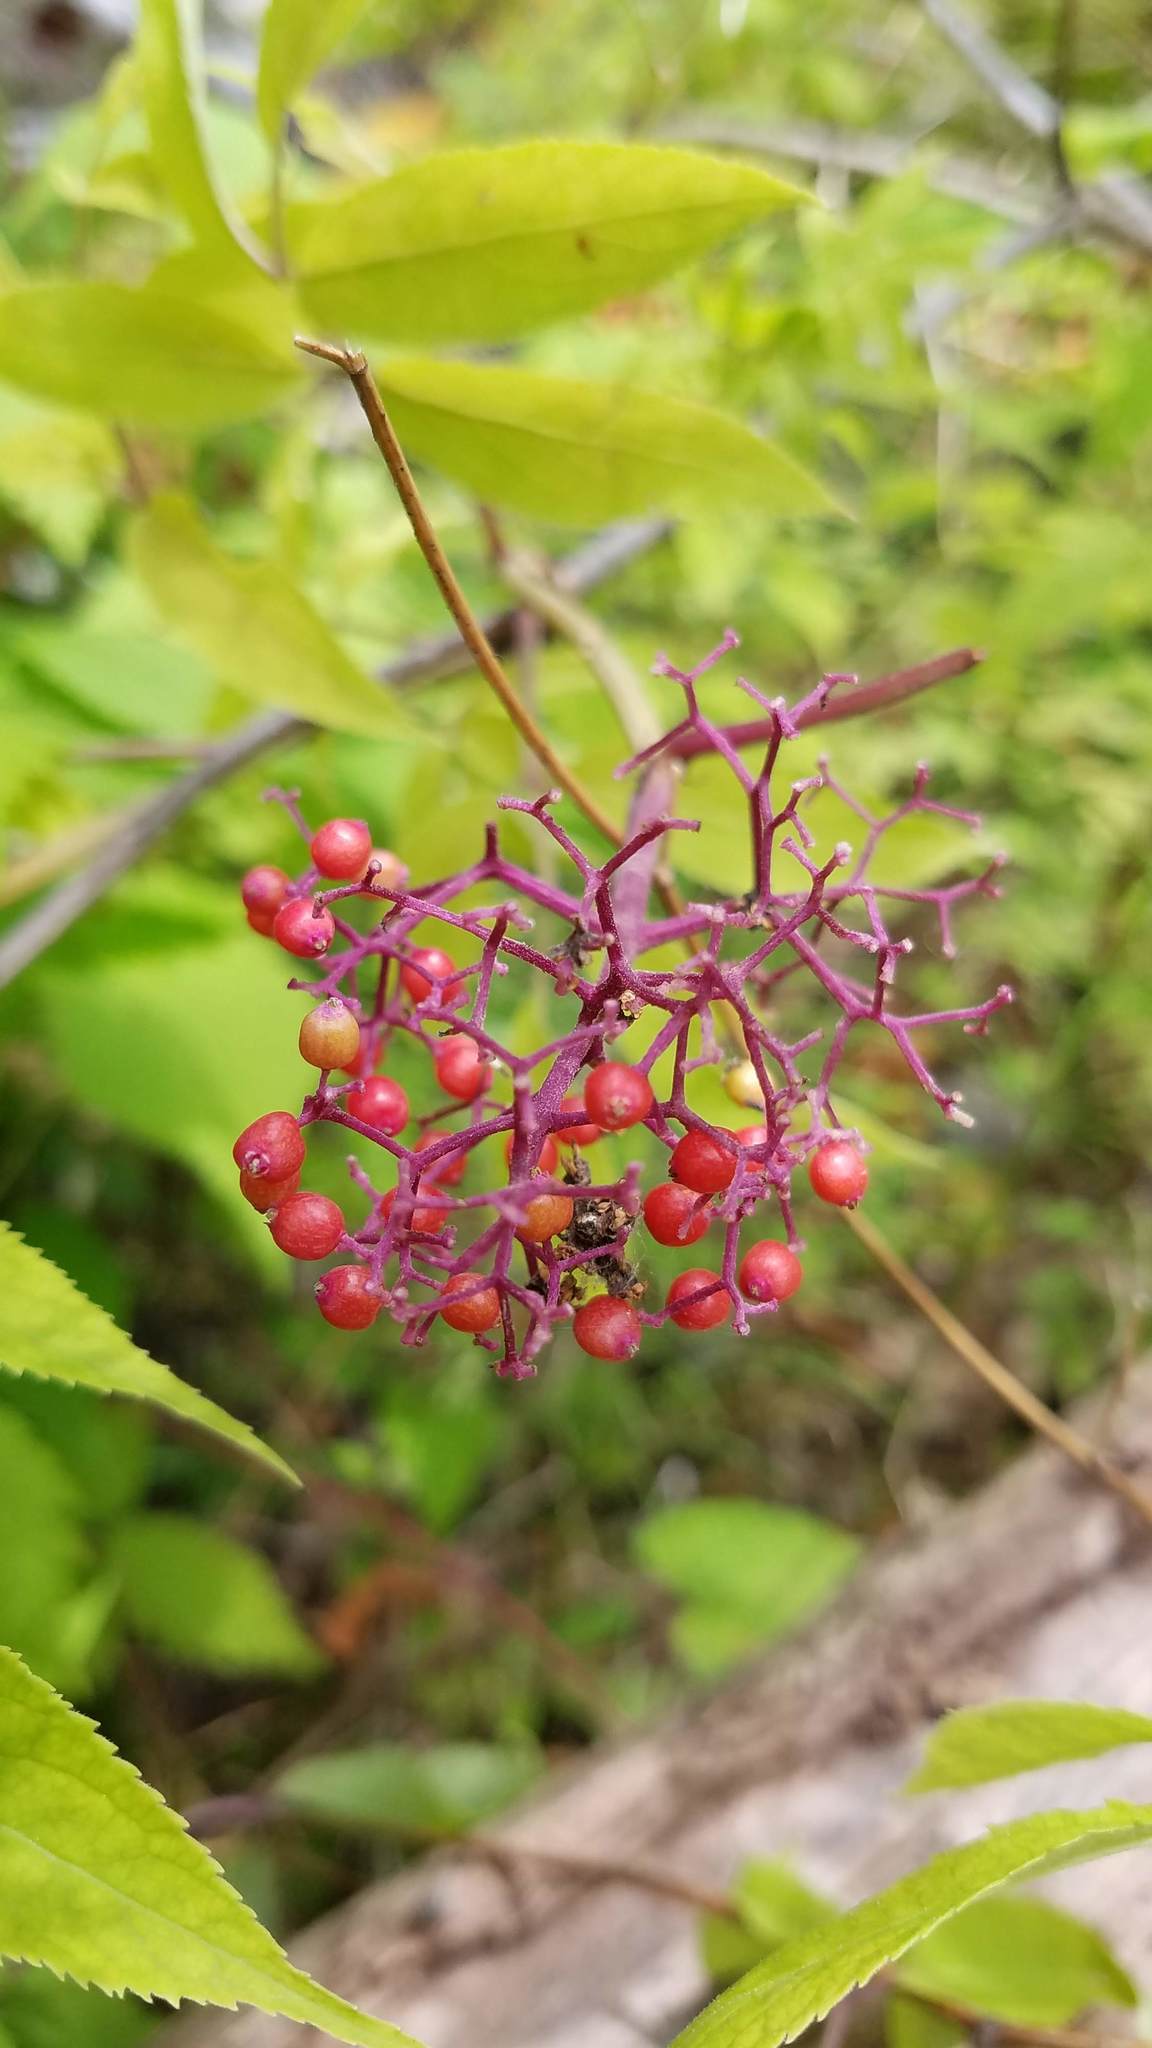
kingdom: Plantae
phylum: Tracheophyta
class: Magnoliopsida
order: Dipsacales
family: Viburnaceae
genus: Sambucus
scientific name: Sambucus racemosa
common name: Red-berried elder
